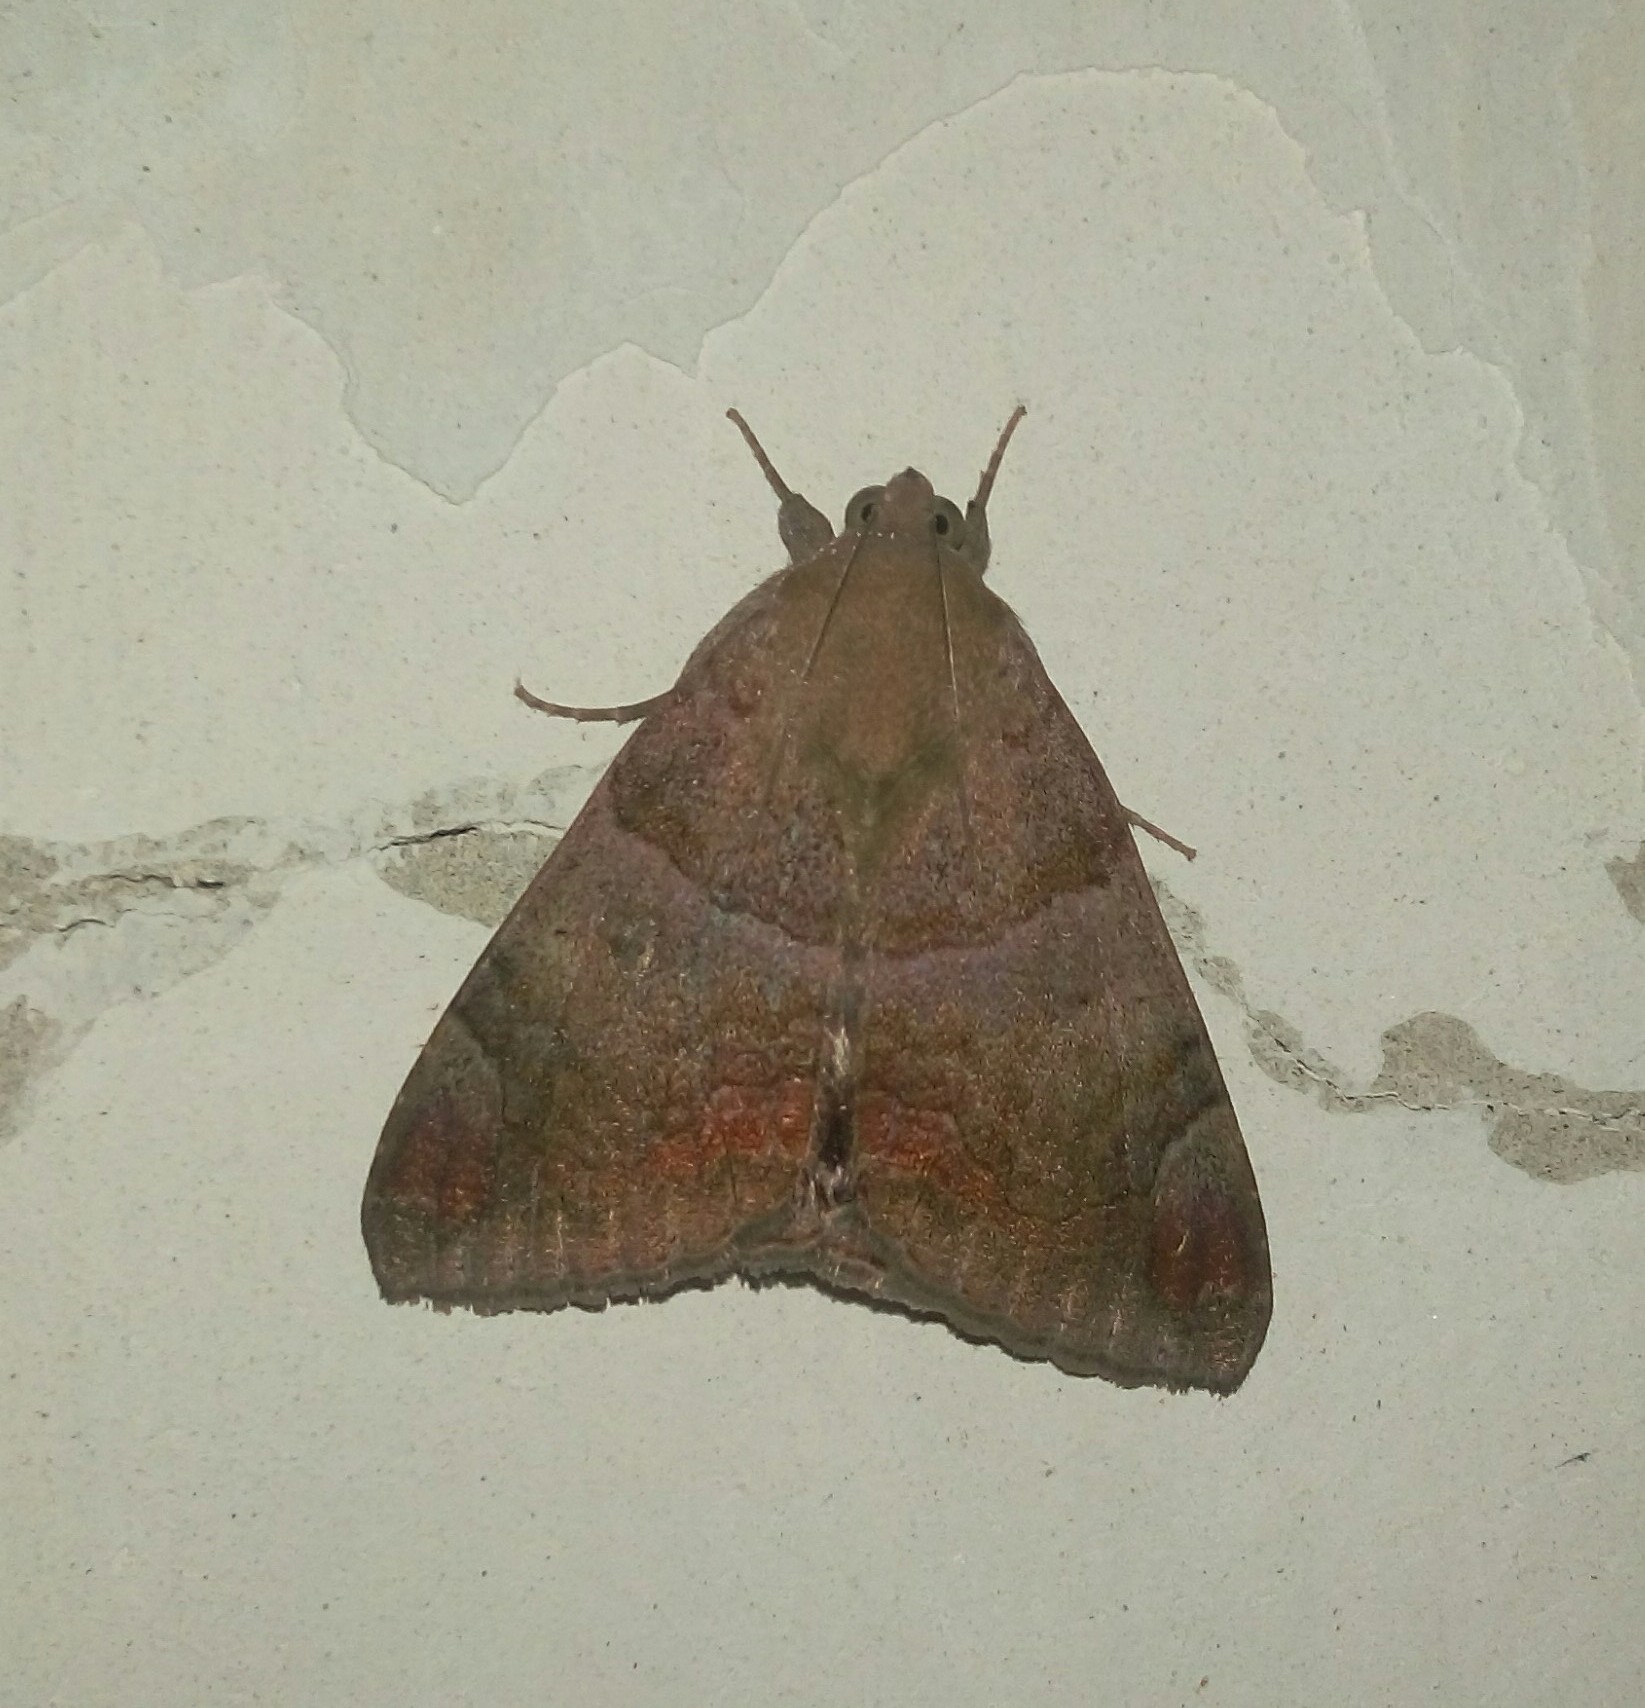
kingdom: Animalia
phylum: Arthropoda
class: Insecta
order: Lepidoptera
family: Erebidae
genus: Achaea
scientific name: Achaea janata
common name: Croton caterpillar
